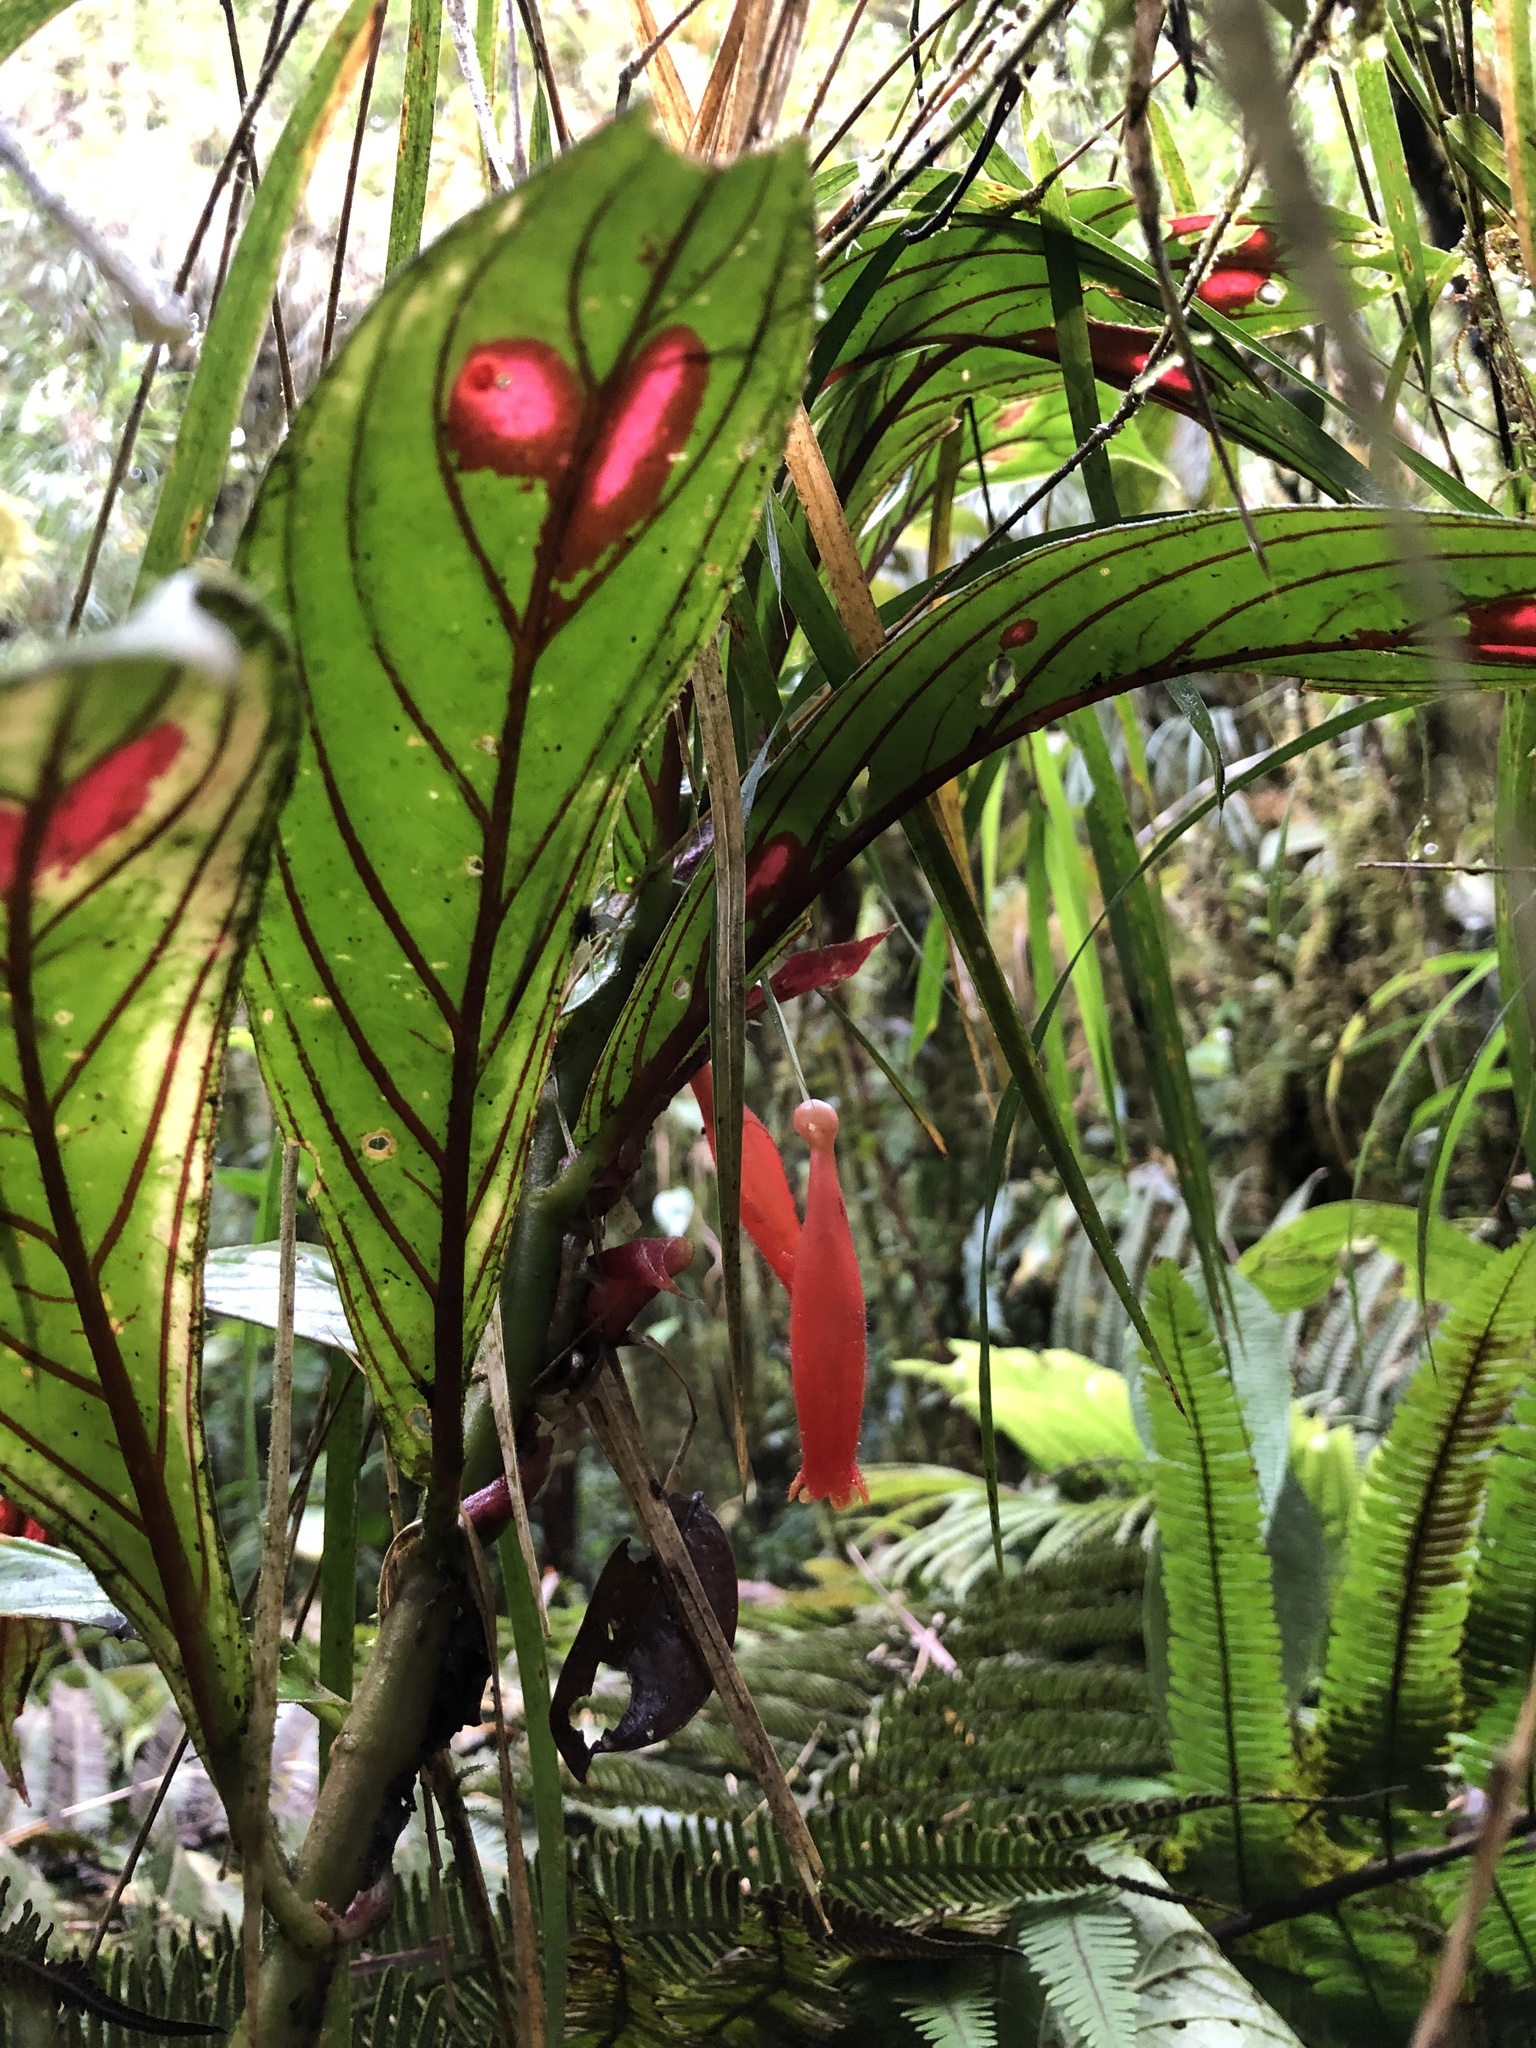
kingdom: Plantae
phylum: Tracheophyta
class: Magnoliopsida
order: Lamiales
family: Gesneriaceae
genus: Columnea
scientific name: Columnea dimidiata
